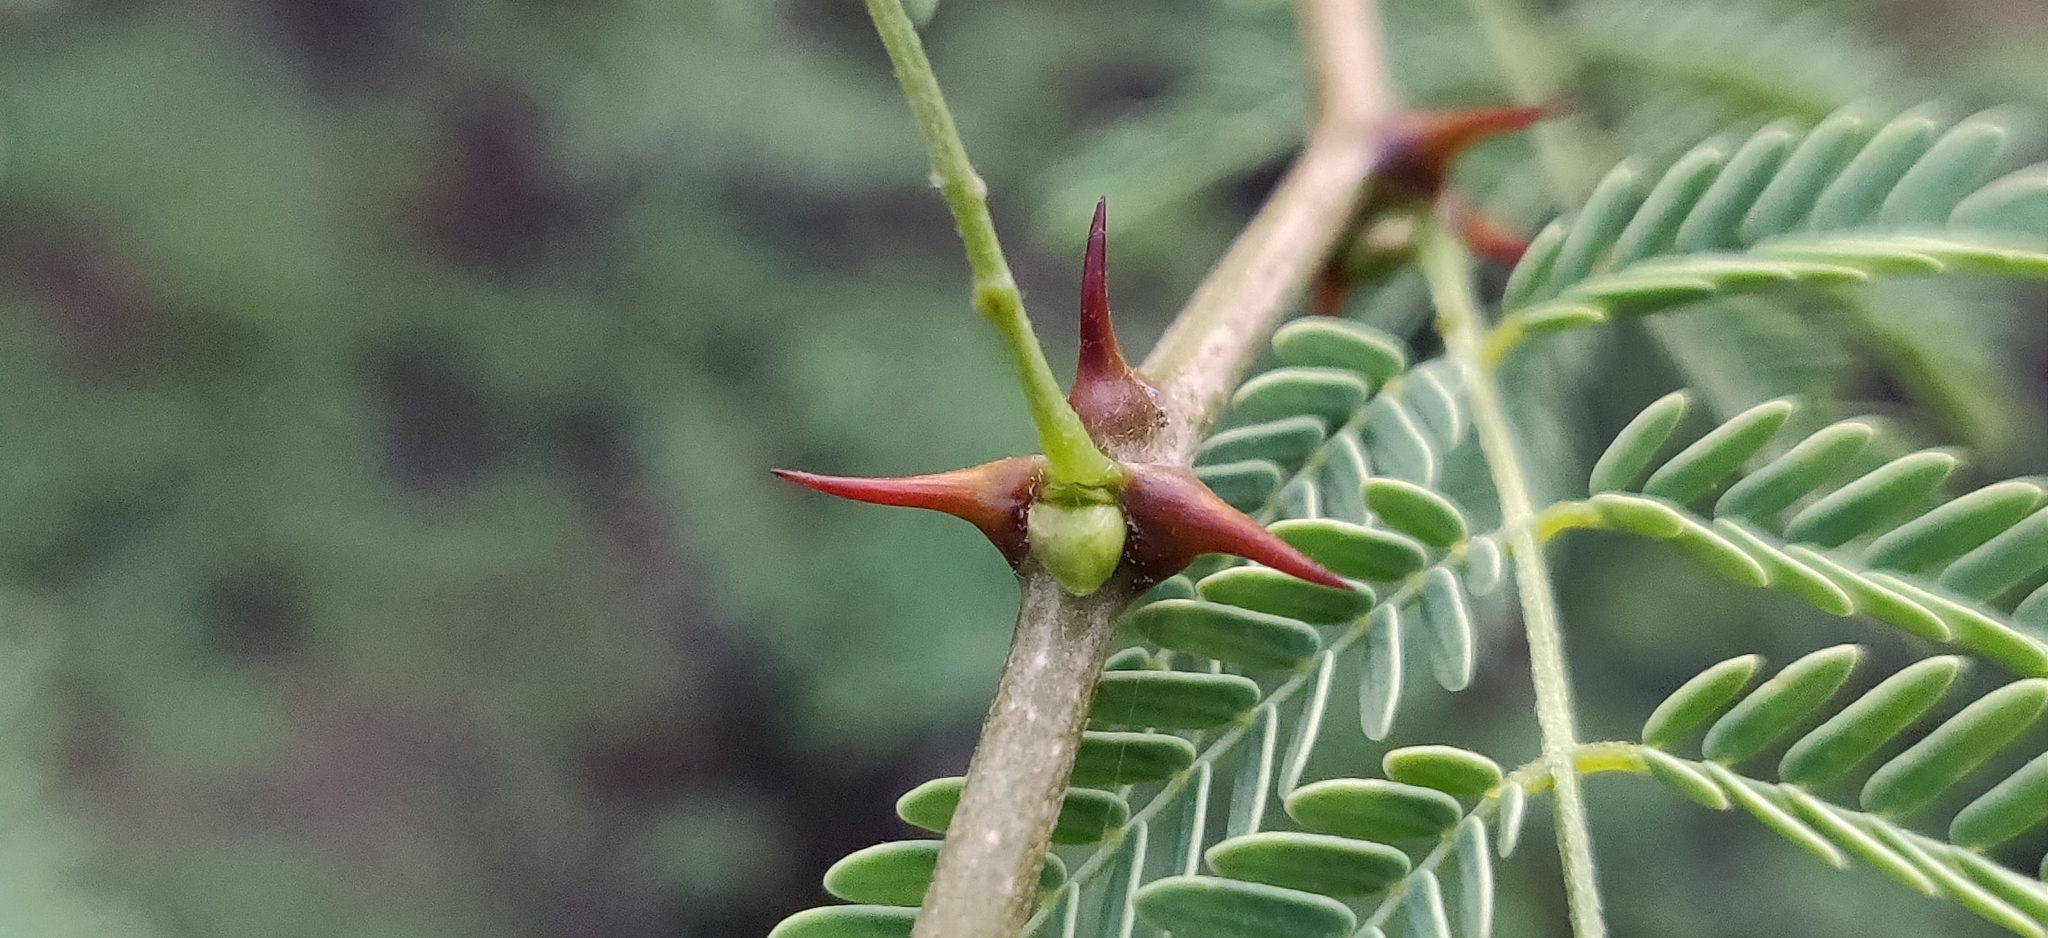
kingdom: Plantae
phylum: Tracheophyta
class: Magnoliopsida
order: Fabales
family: Fabaceae
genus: Senegalia
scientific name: Senegalia senegal
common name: Senegal-gum
